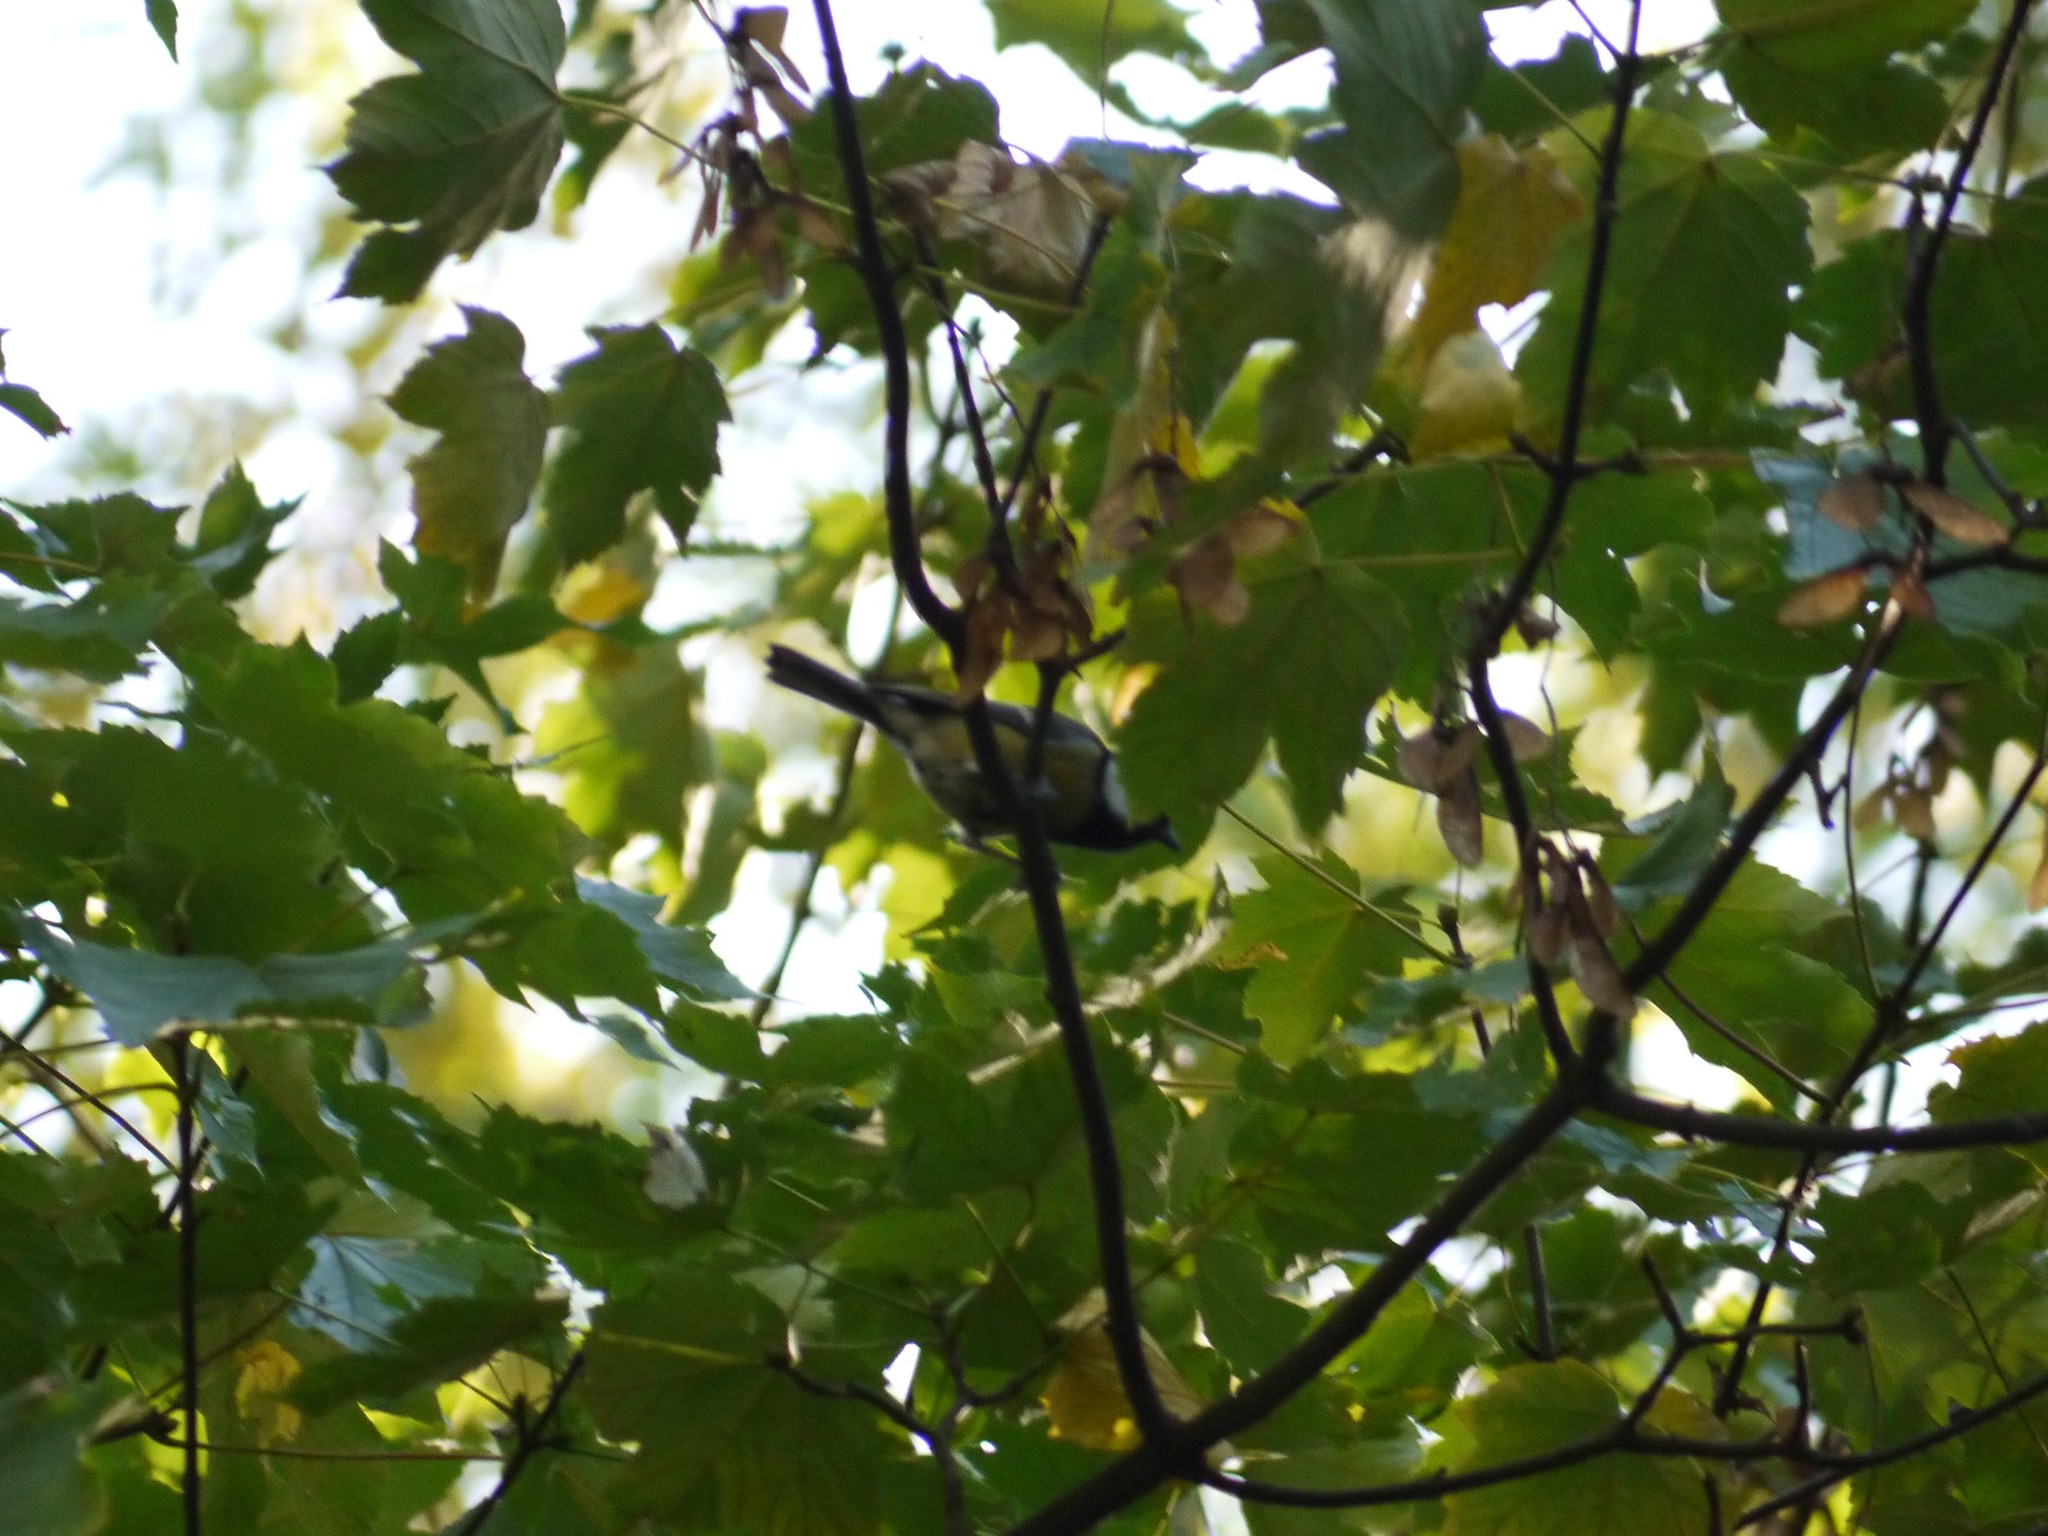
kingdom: Animalia
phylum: Chordata
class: Aves
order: Passeriformes
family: Paridae
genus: Parus
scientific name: Parus major
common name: Great tit
